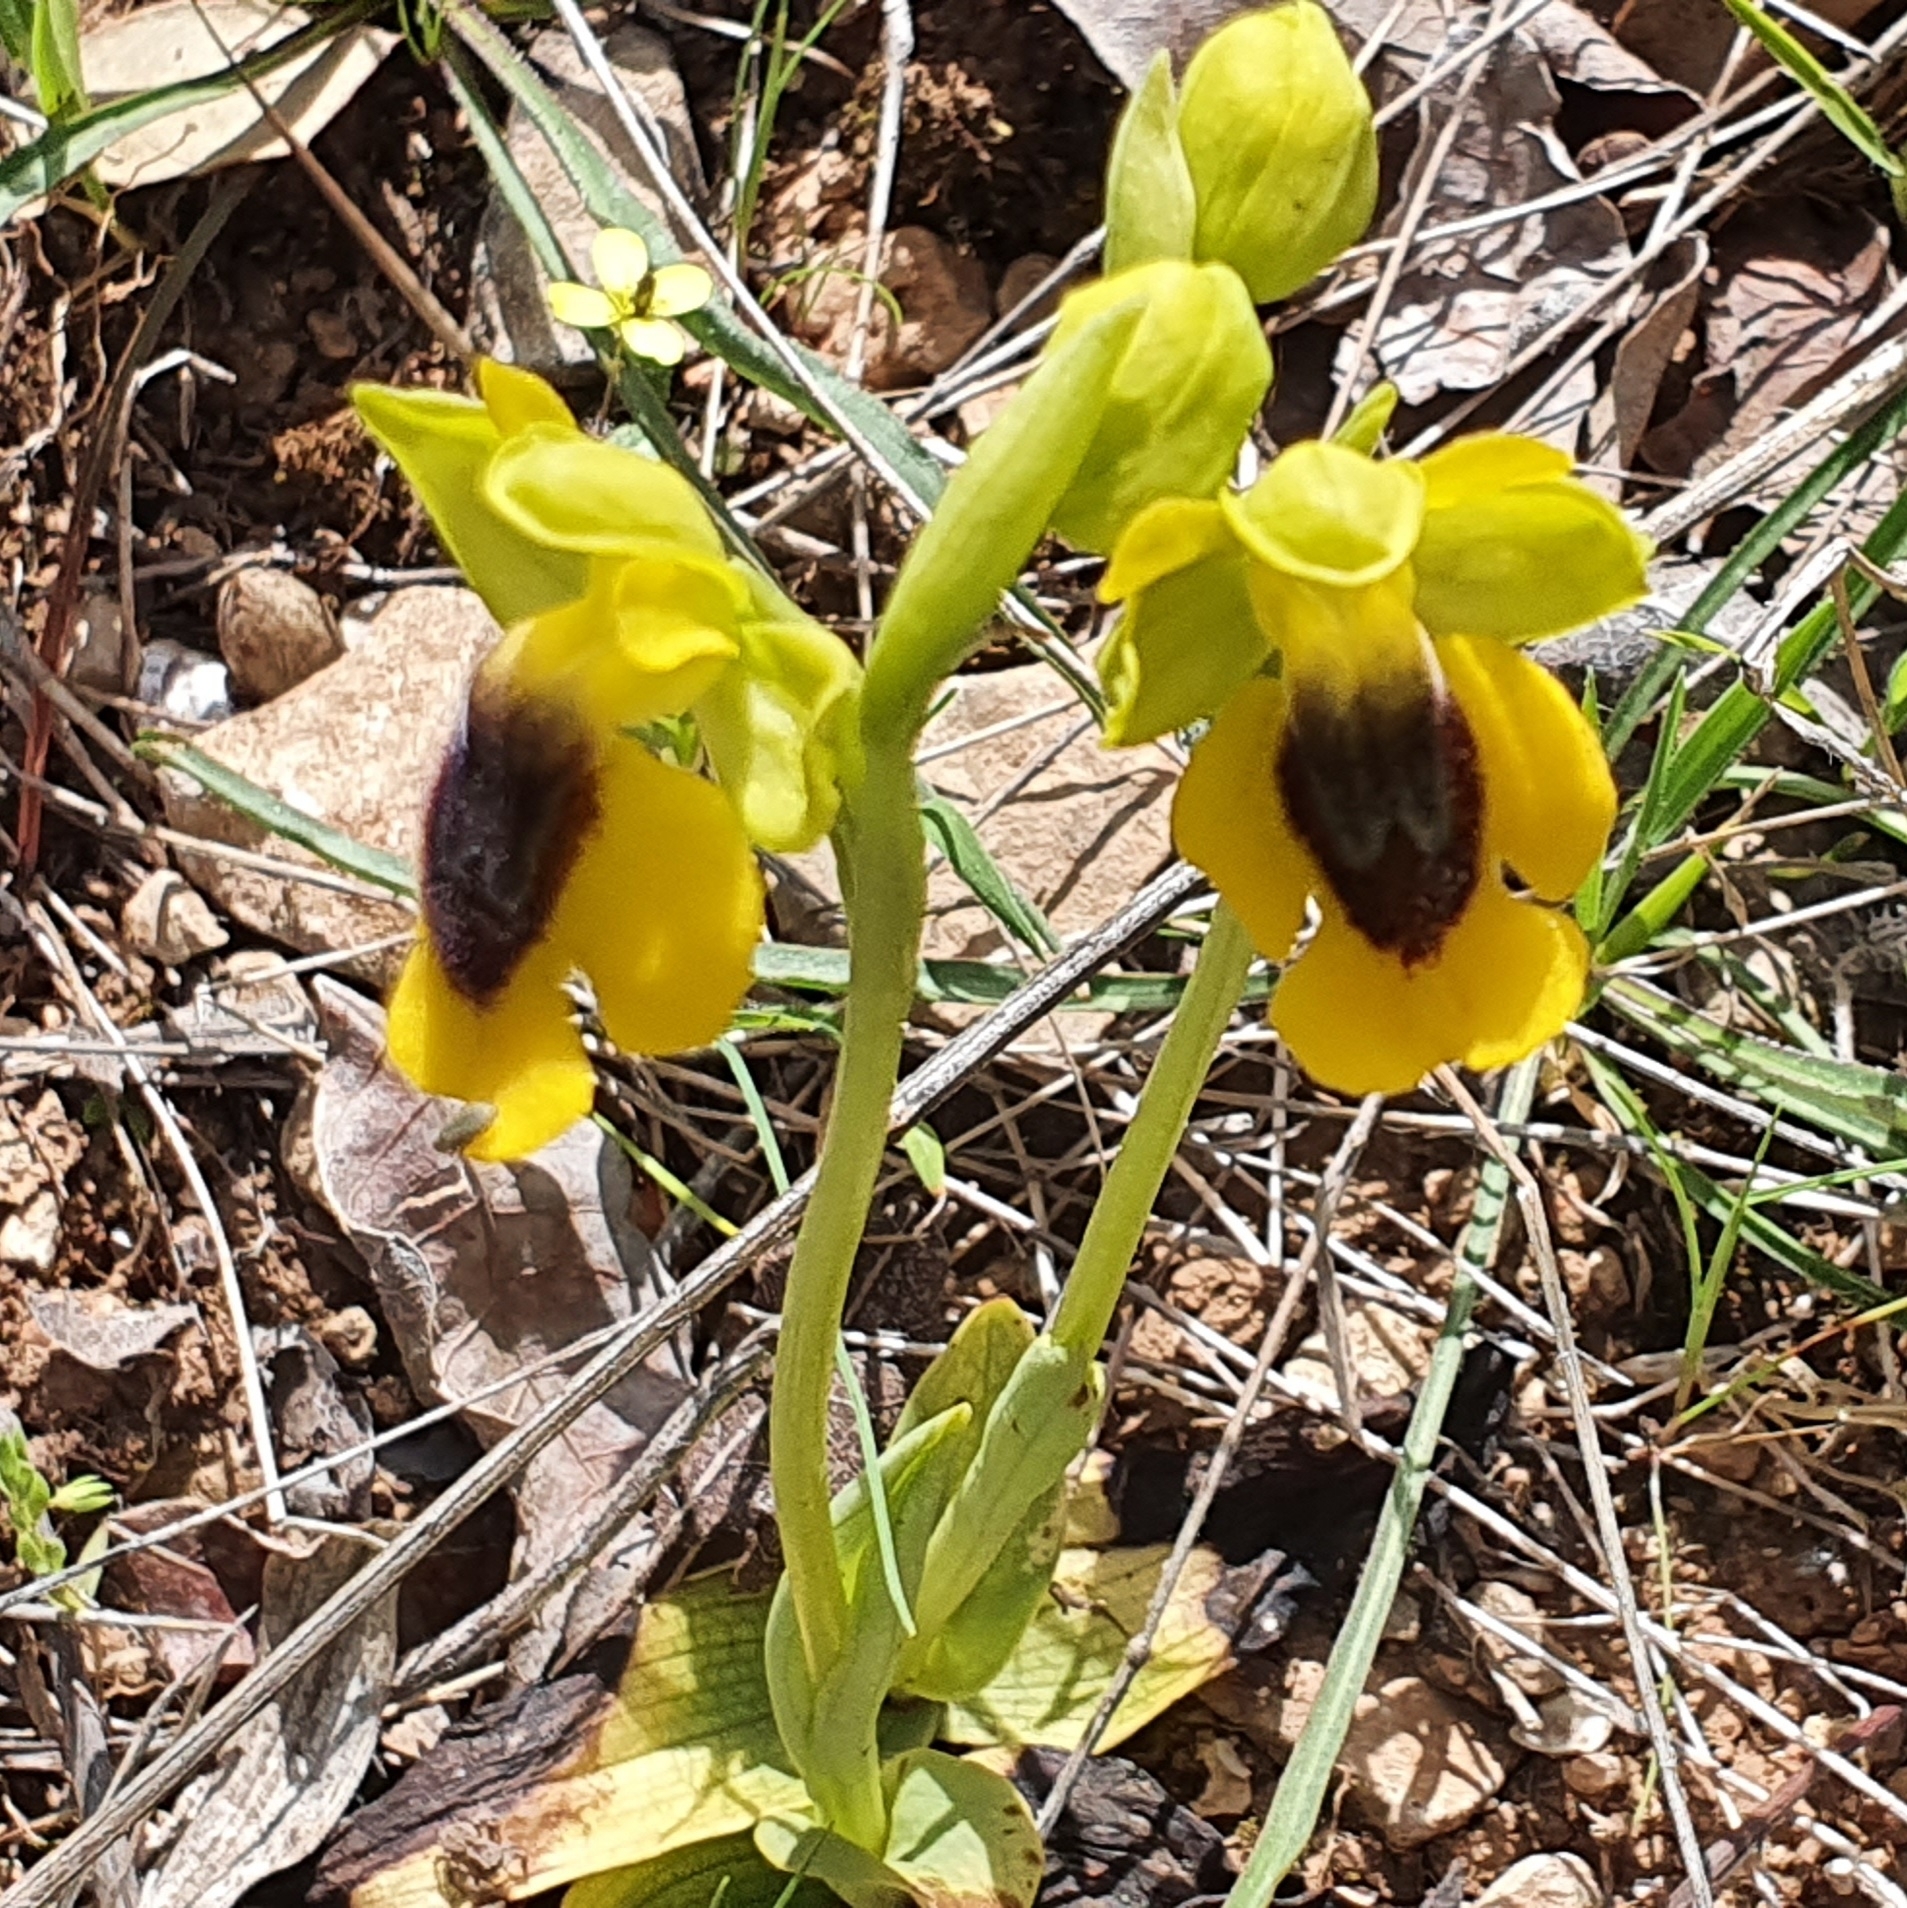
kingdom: Plantae
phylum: Tracheophyta
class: Liliopsida
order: Asparagales
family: Orchidaceae
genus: Ophrys
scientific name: Ophrys lutea
